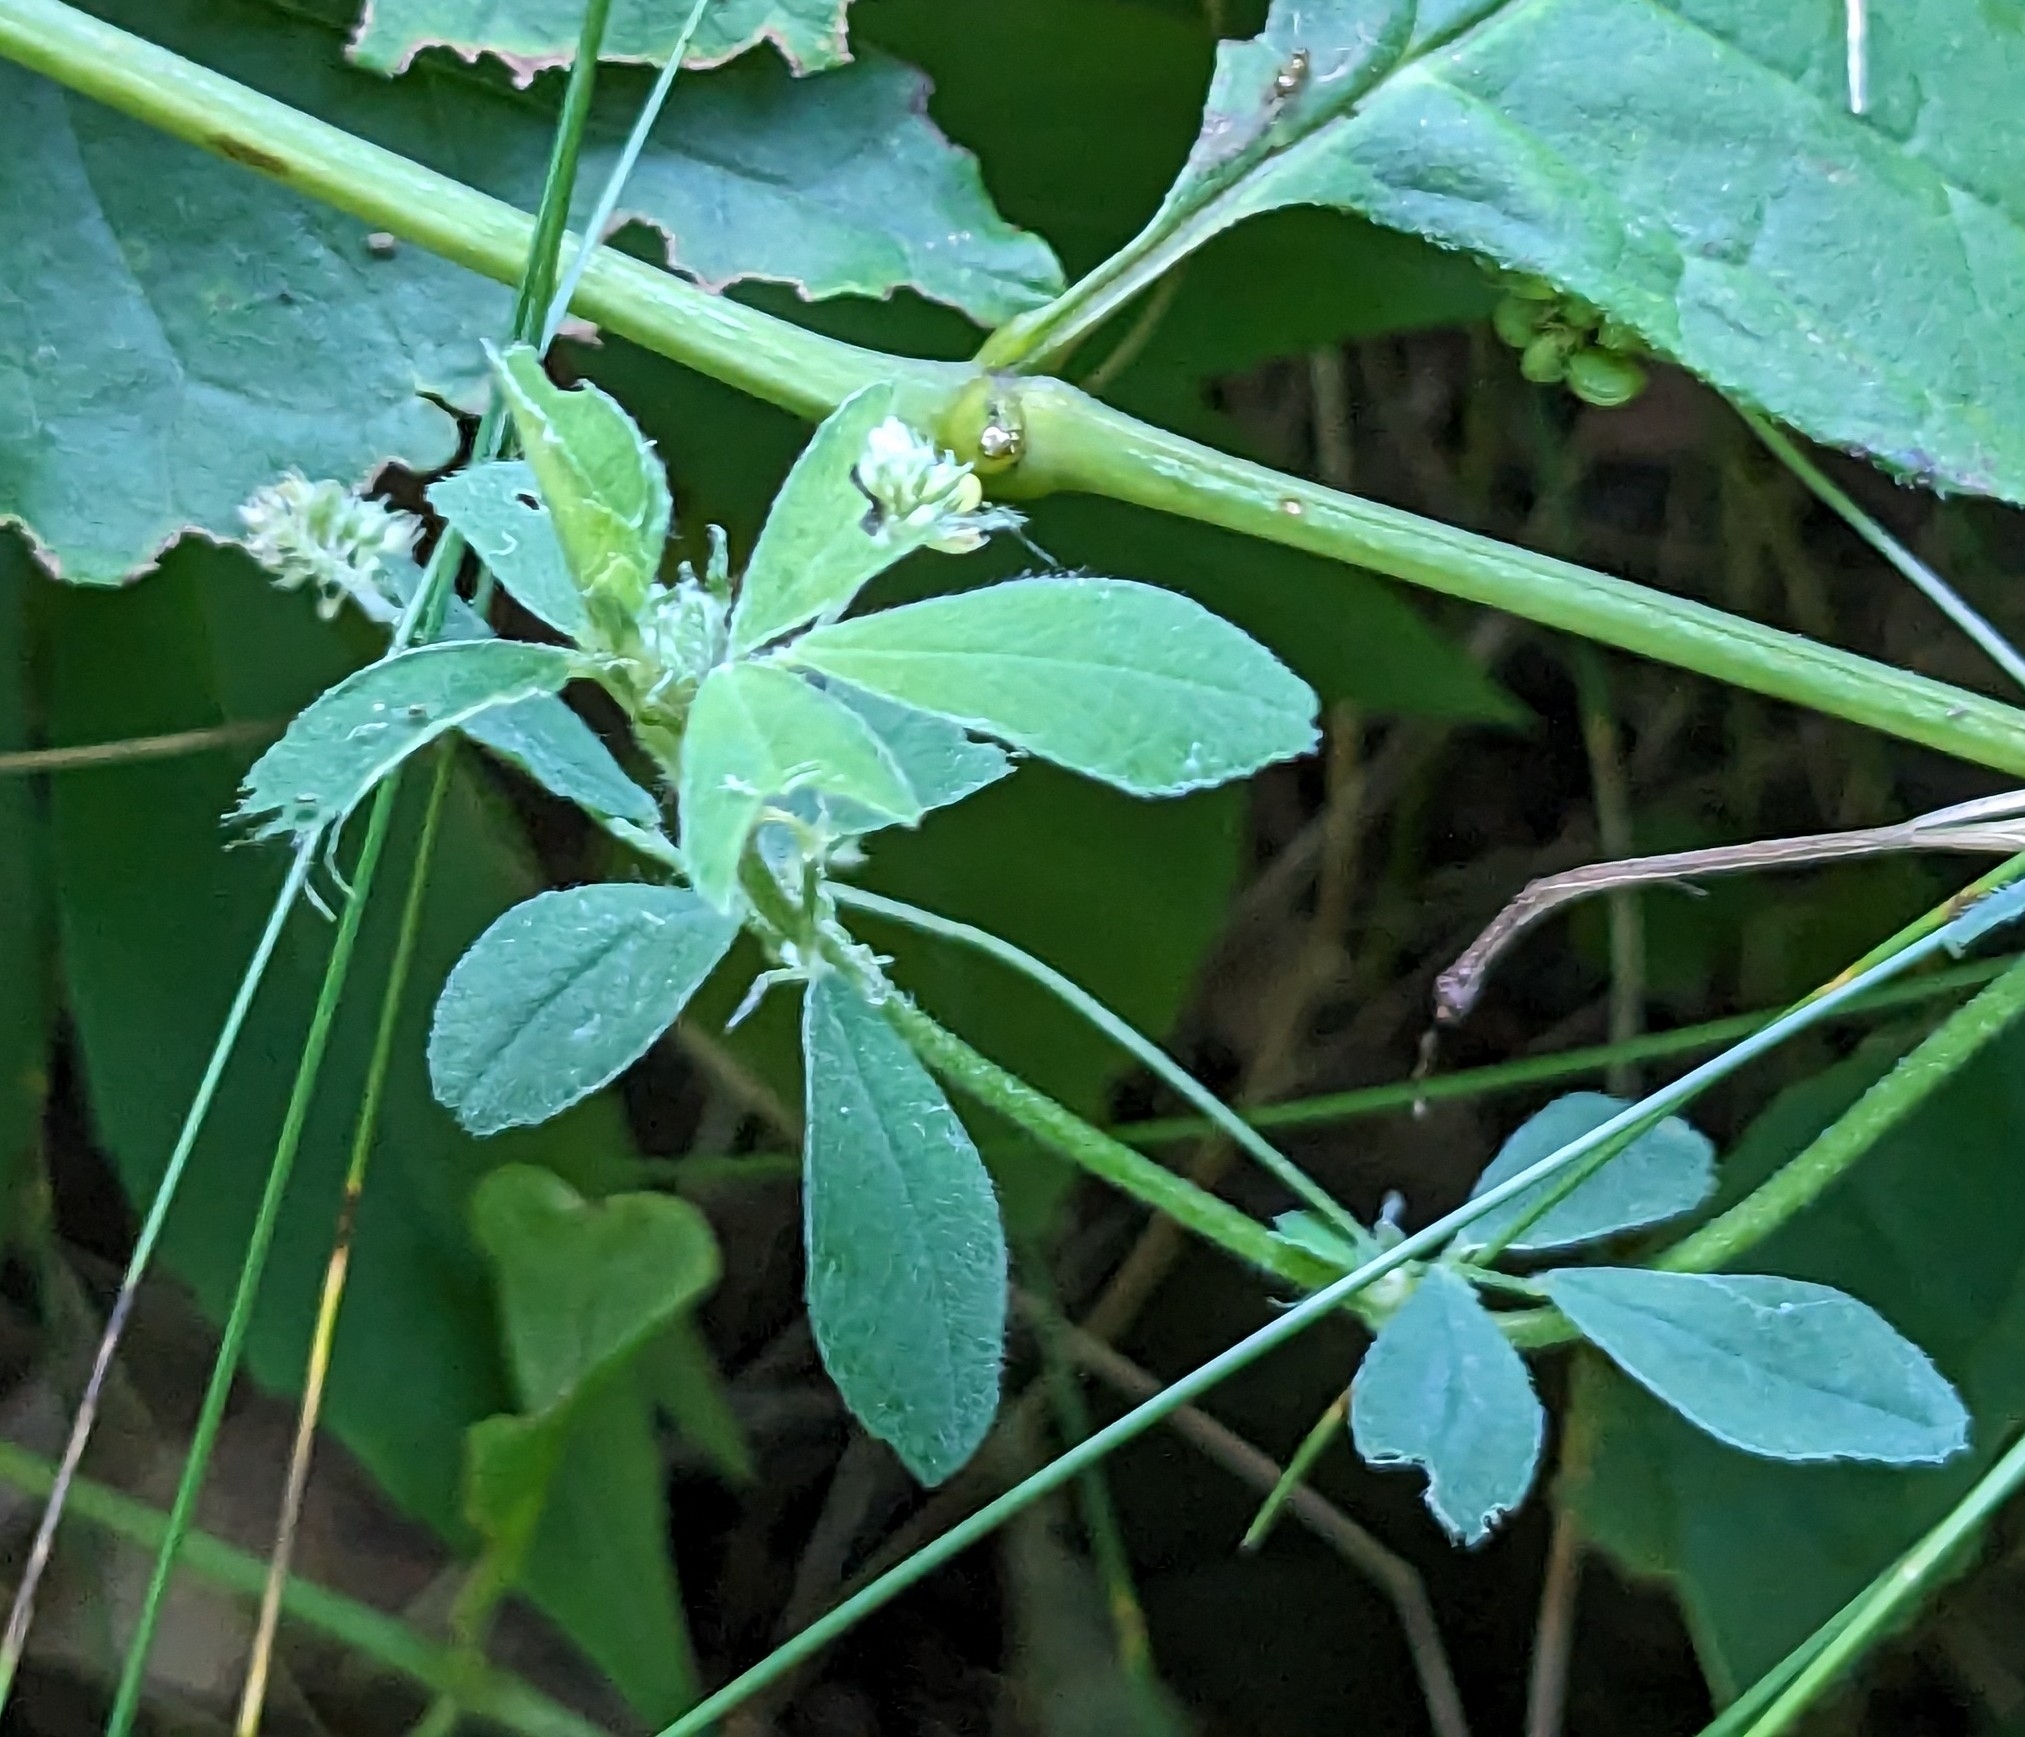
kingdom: Plantae
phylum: Tracheophyta
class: Magnoliopsida
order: Fabales
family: Fabaceae
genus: Medicago
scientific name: Medicago lupulina
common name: Black medick
